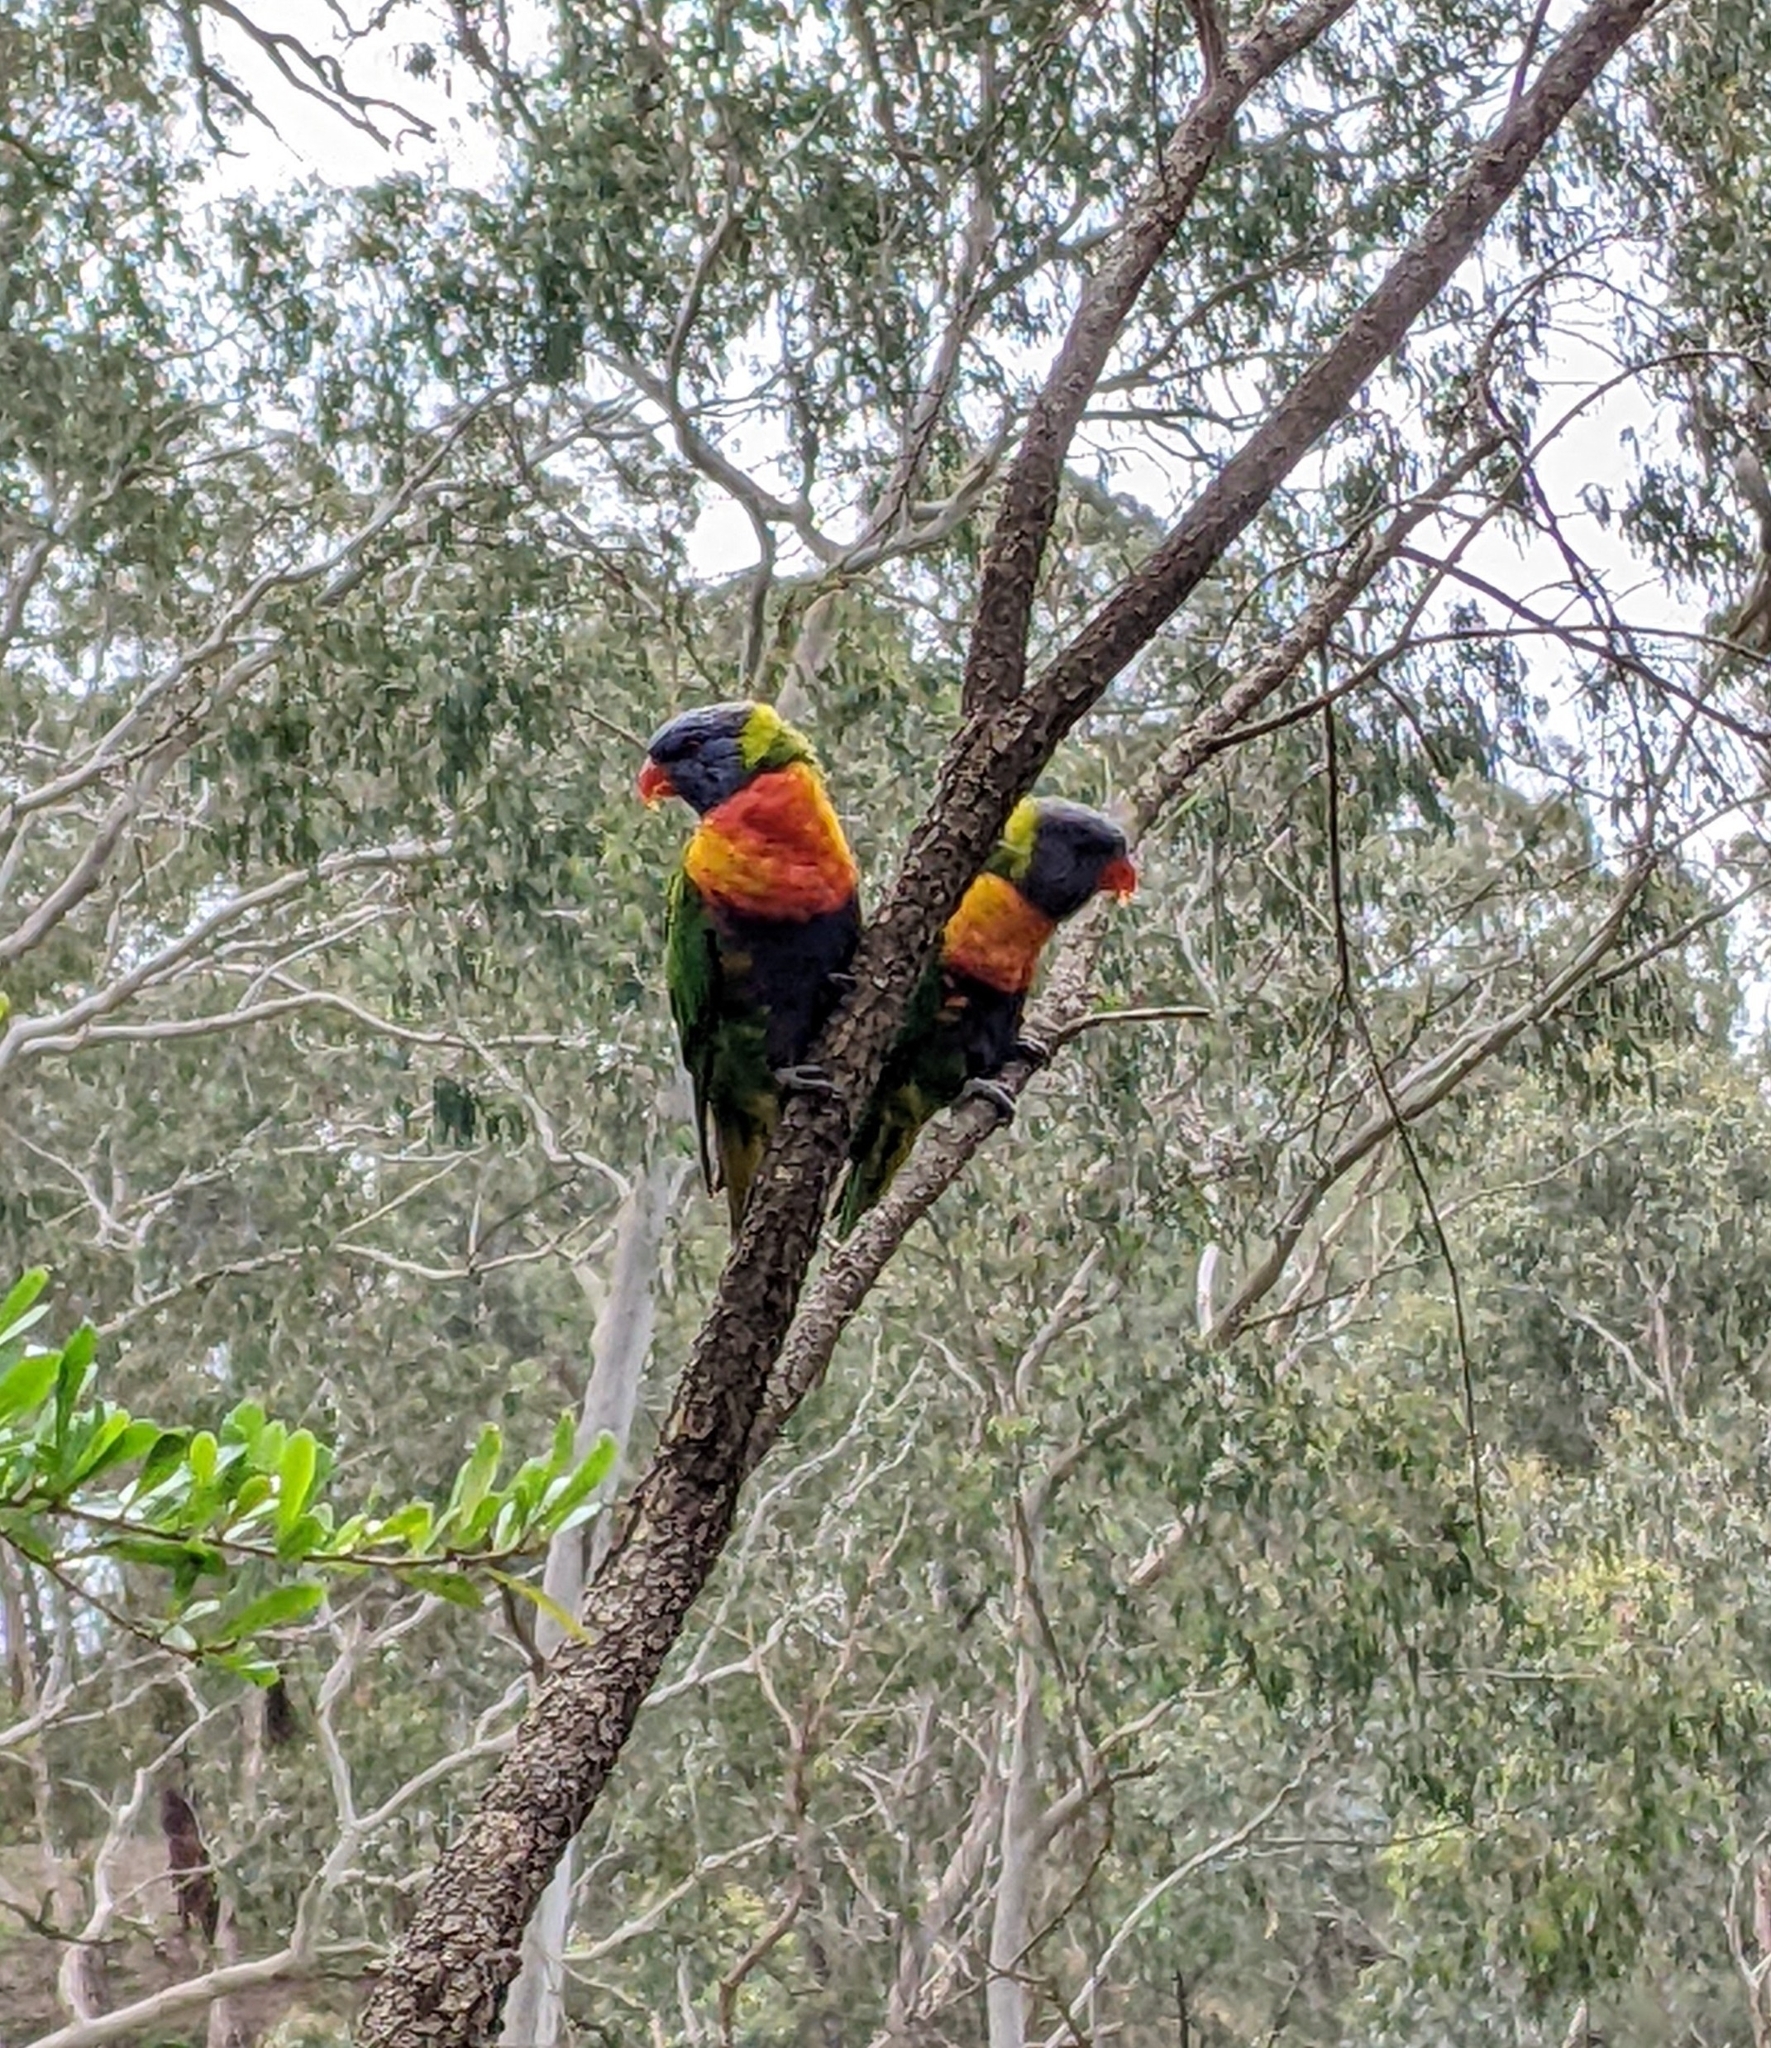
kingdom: Animalia
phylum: Chordata
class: Aves
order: Psittaciformes
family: Psittacidae
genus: Trichoglossus
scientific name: Trichoglossus haematodus
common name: Coconut lorikeet
